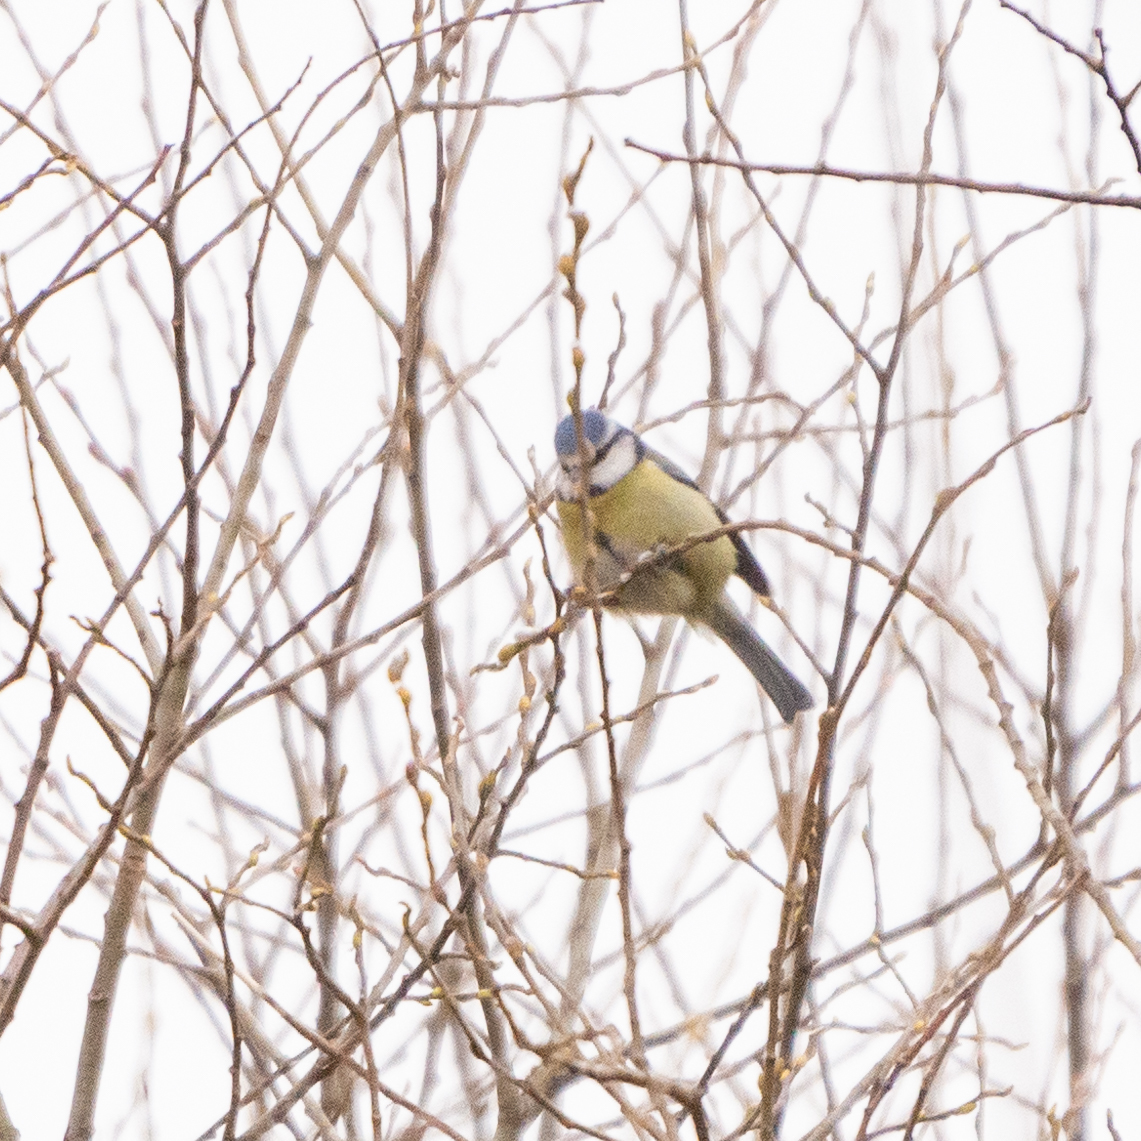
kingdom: Animalia
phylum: Chordata
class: Aves
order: Passeriformes
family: Paridae
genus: Cyanistes
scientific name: Cyanistes caeruleus
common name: Eurasian blue tit
